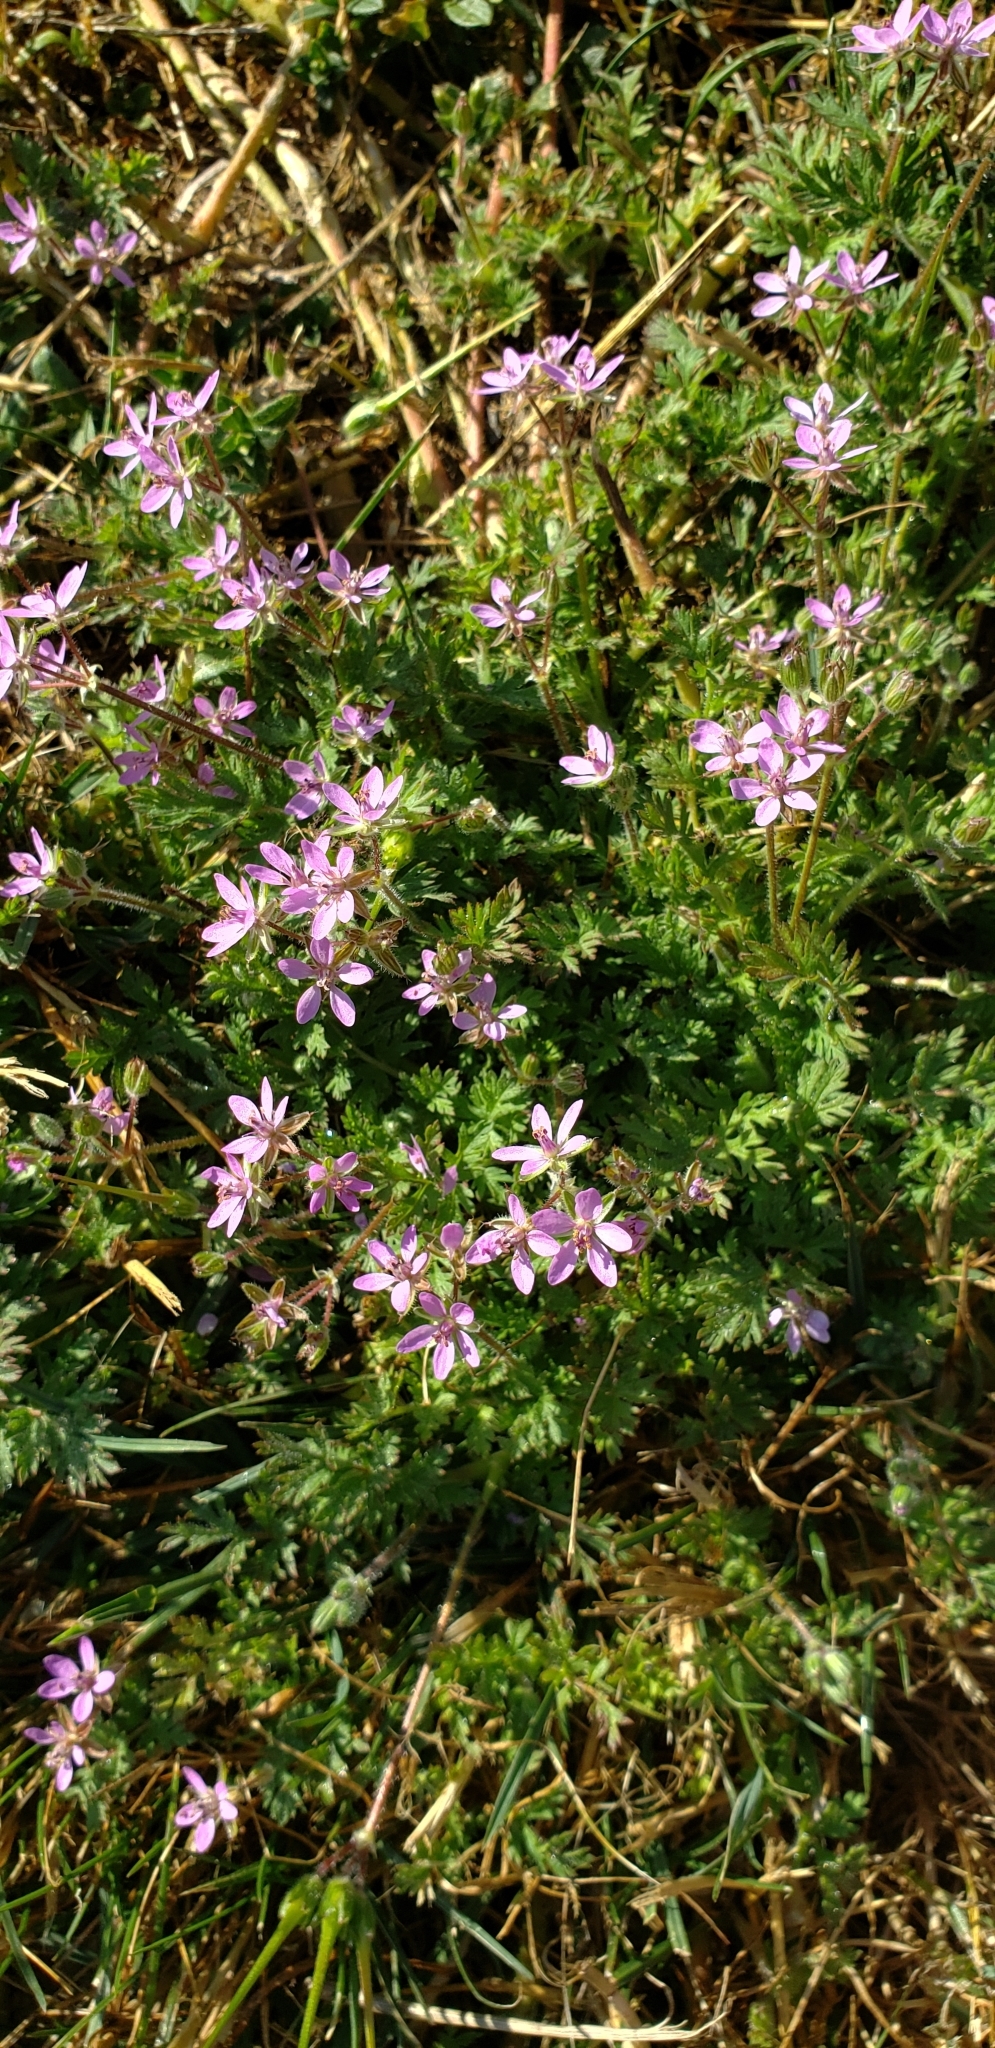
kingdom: Plantae
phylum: Tracheophyta
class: Magnoliopsida
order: Geraniales
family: Geraniaceae
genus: Erodium
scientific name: Erodium cicutarium
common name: Common stork's-bill
